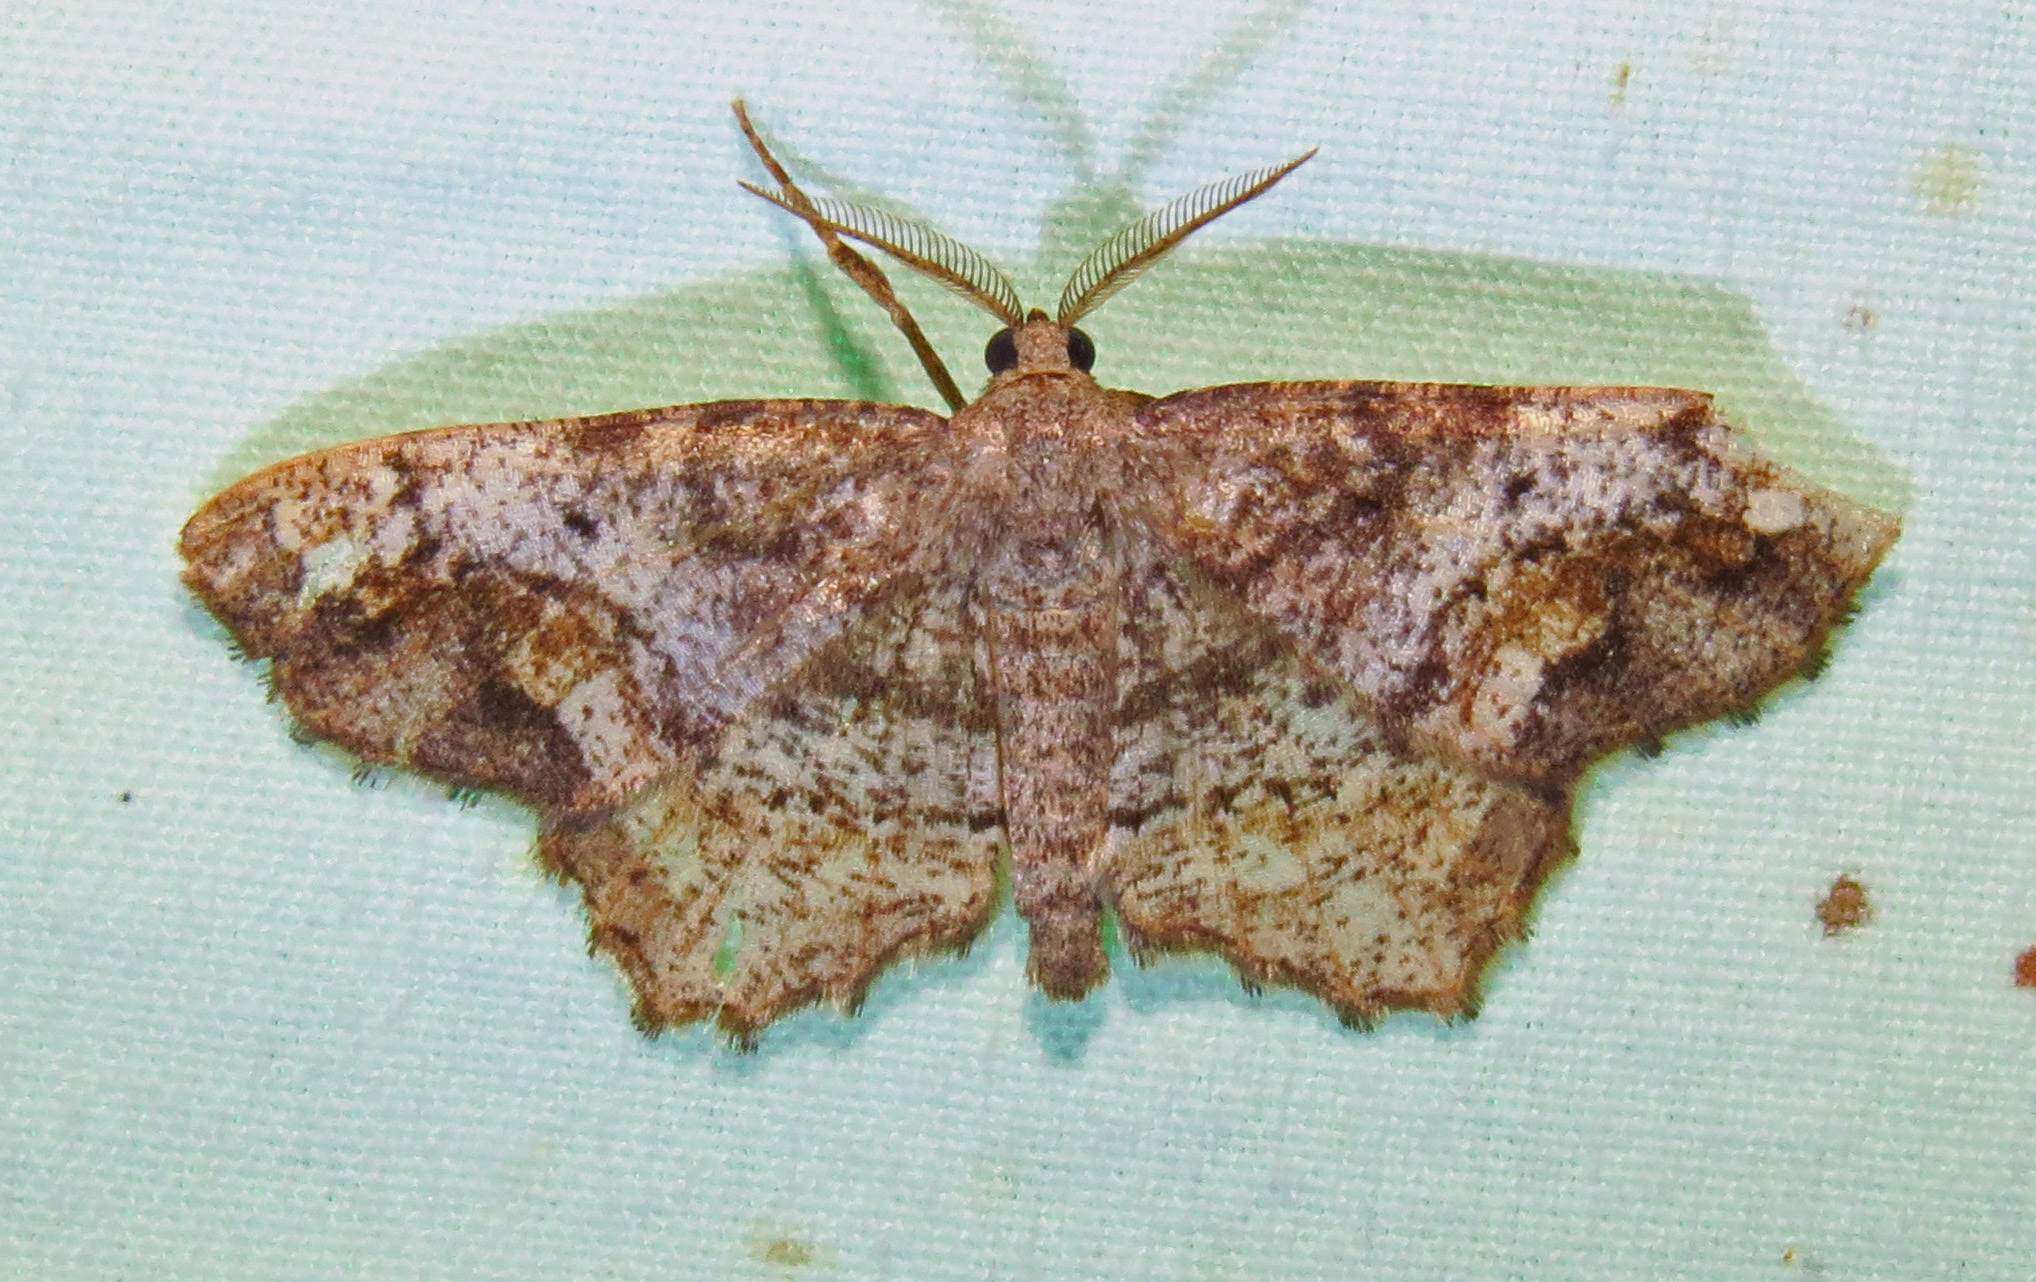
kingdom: Animalia
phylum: Arthropoda
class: Insecta
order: Lepidoptera
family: Geometridae
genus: Hypagyrtis
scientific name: Hypagyrtis unipunctata
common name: One-spotted variant
